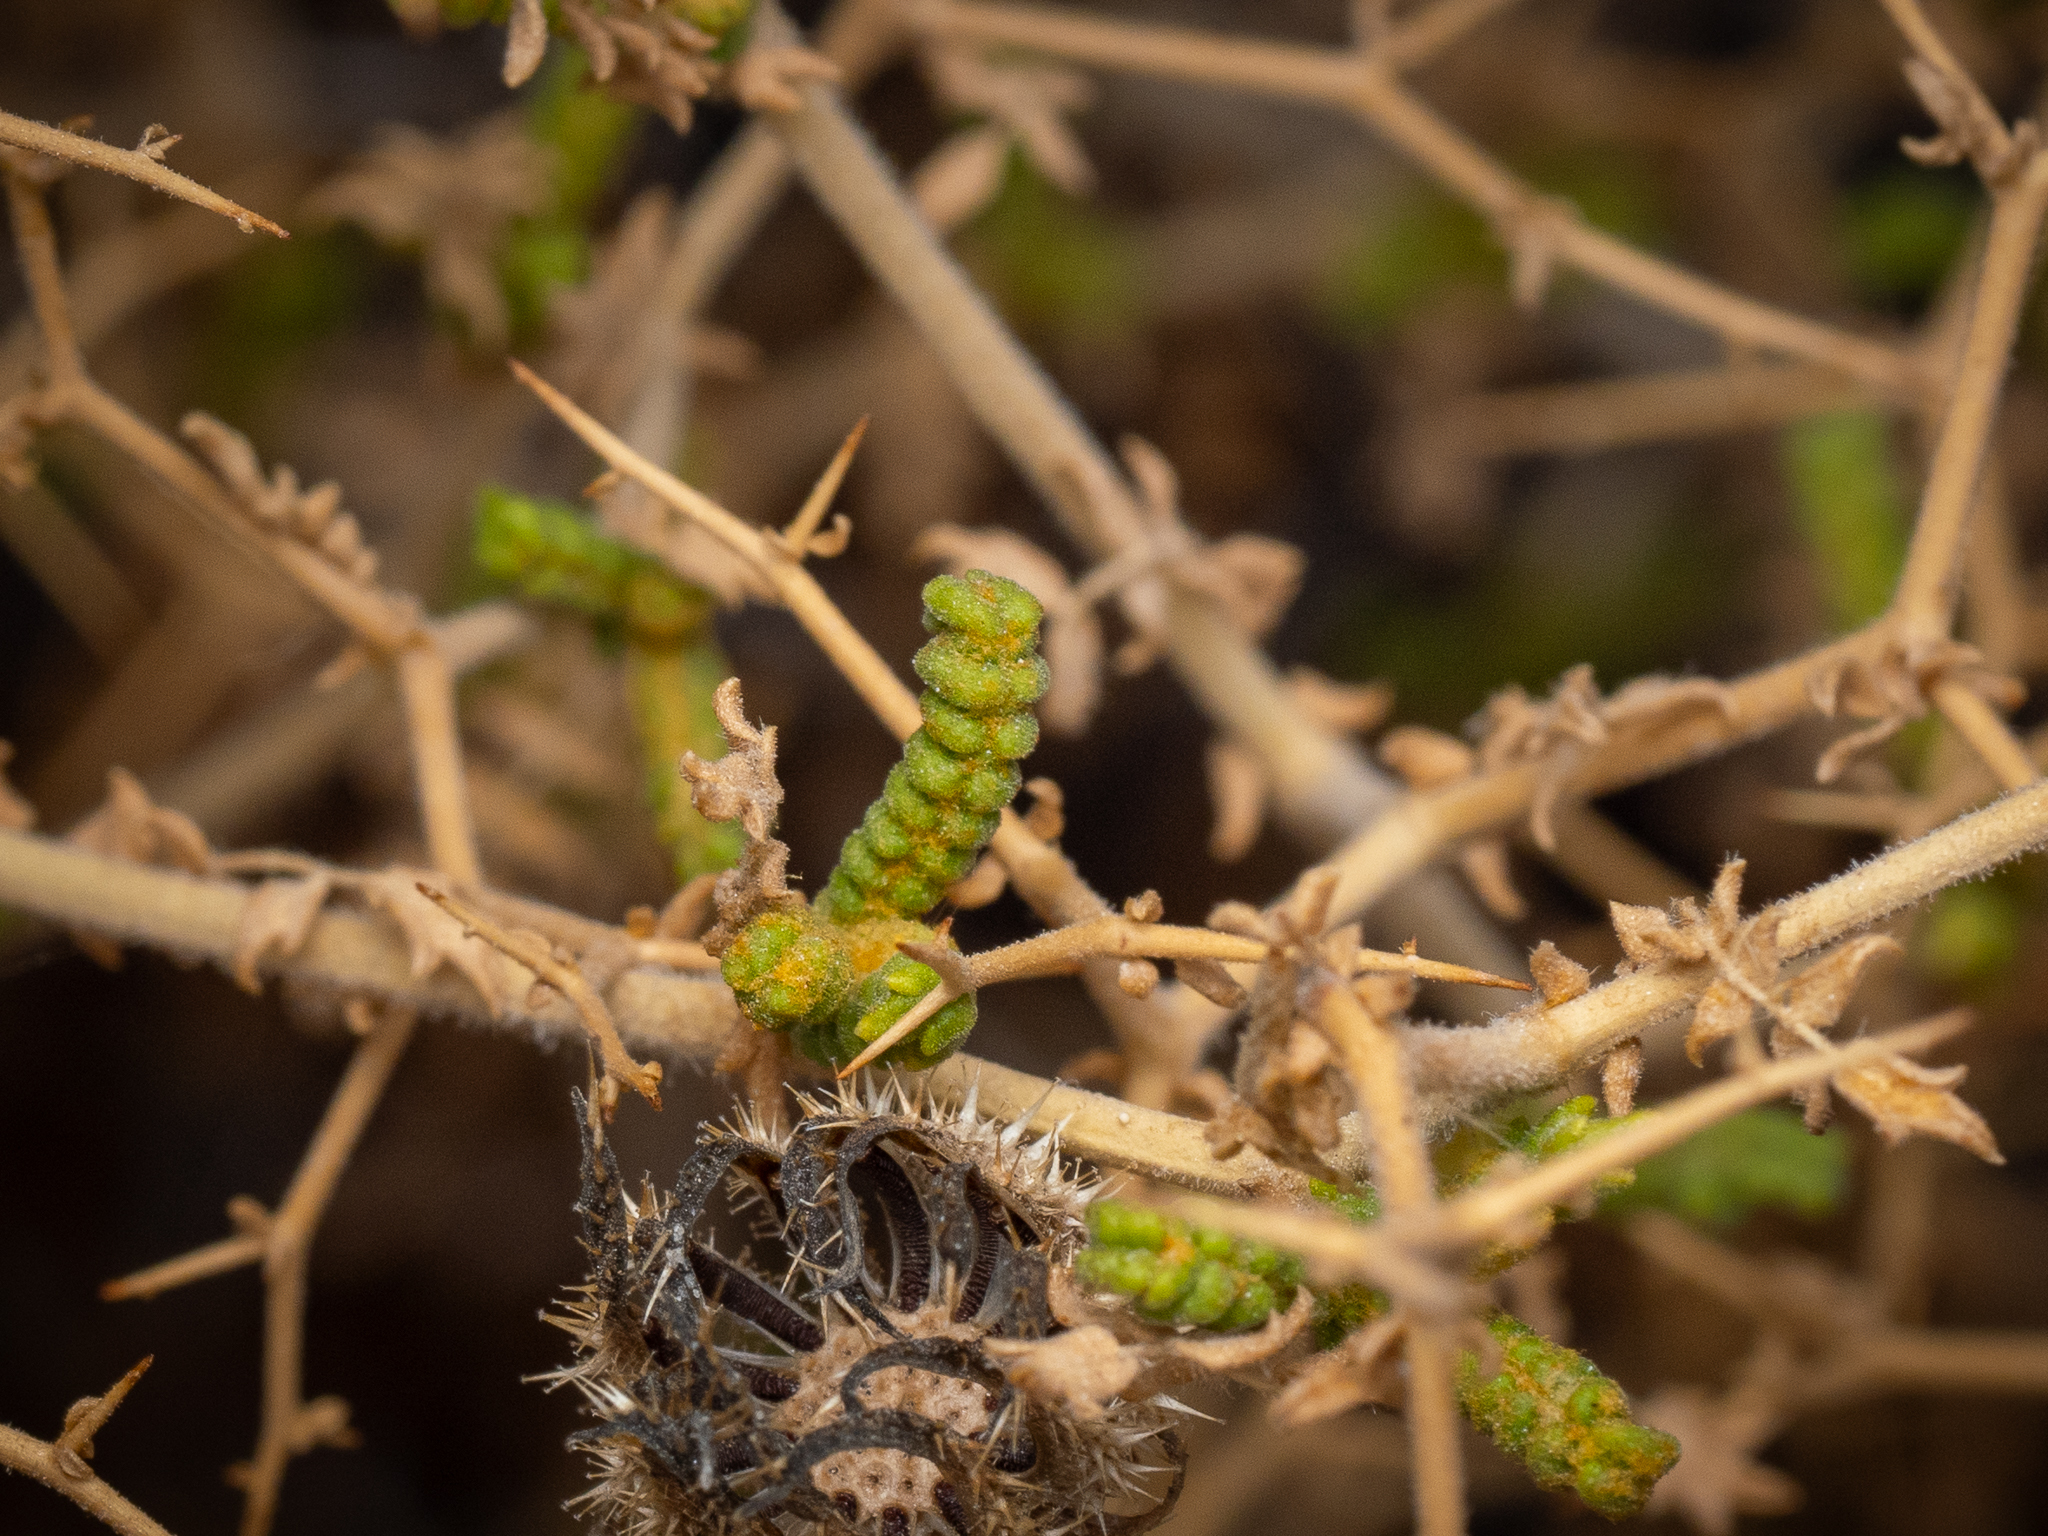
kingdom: Plantae
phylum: Tracheophyta
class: Magnoliopsida
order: Rosales
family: Rosaceae
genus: Sarcopoterium
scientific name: Sarcopoterium spinosum
